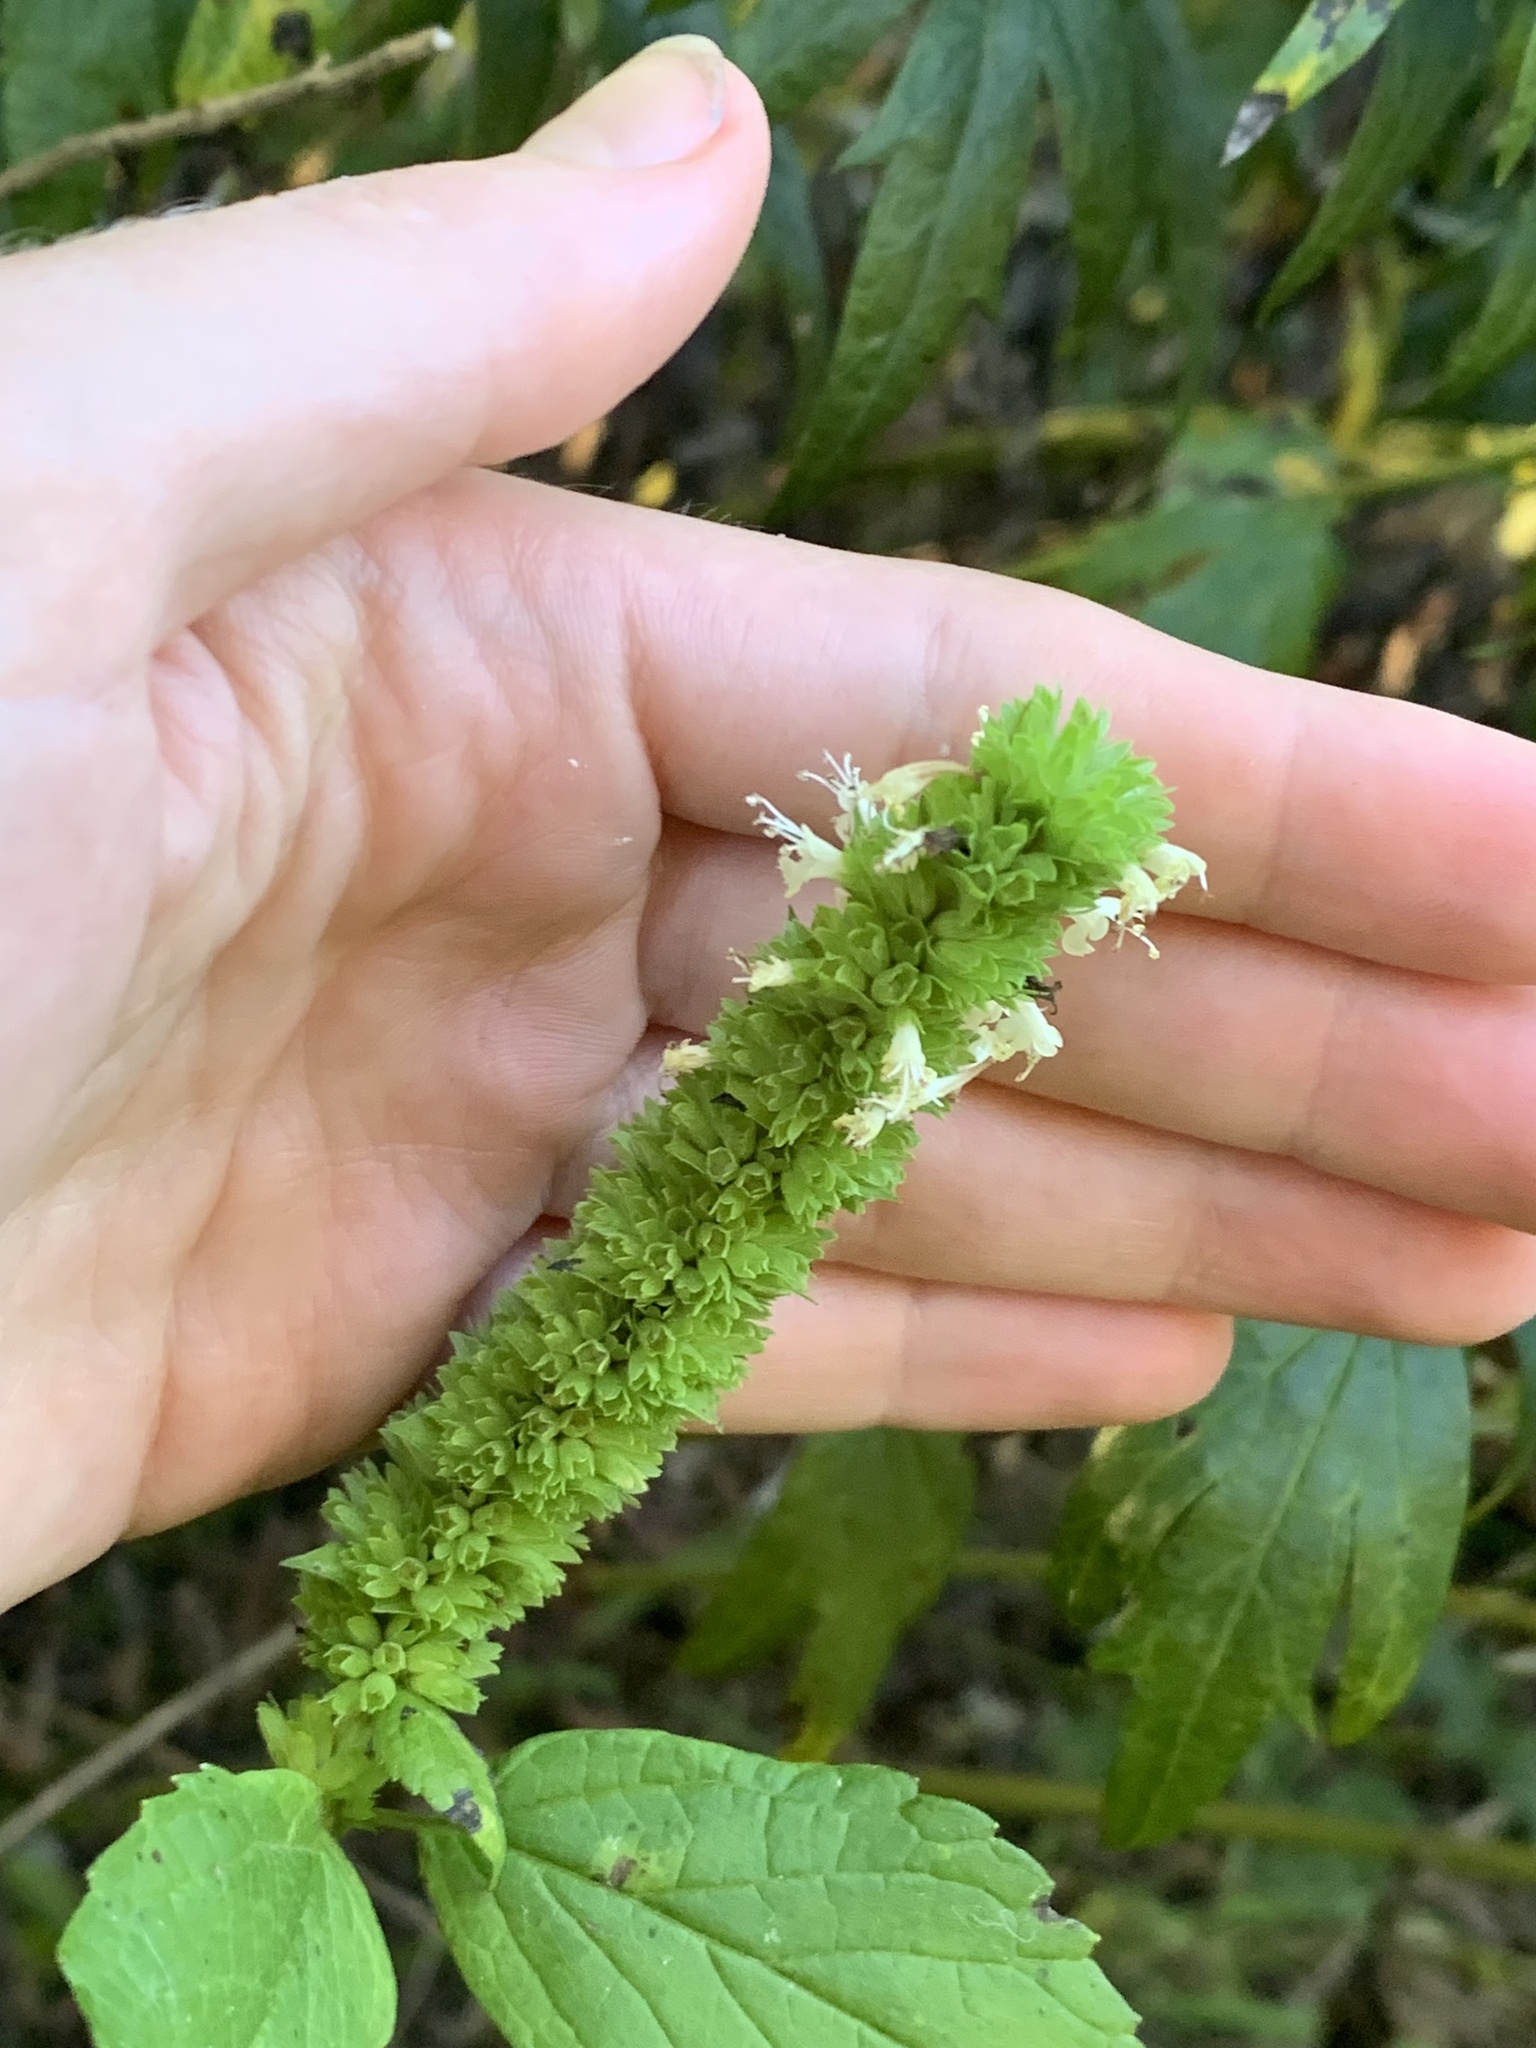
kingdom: Plantae
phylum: Tracheophyta
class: Magnoliopsida
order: Lamiales
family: Lamiaceae
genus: Agastache
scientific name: Agastache nepetoides
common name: Catnip giant hyssop
